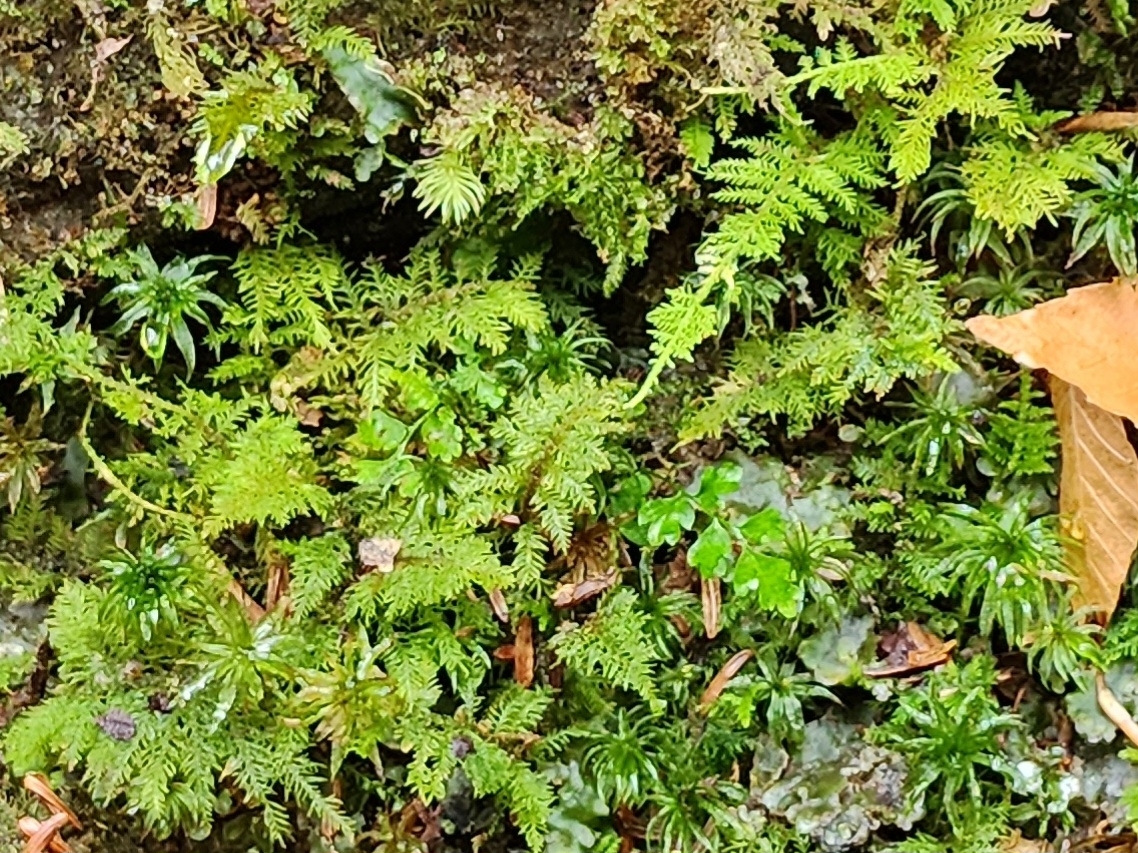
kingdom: Plantae
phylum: Bryophyta
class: Bryopsida
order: Hypnales
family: Thuidiaceae
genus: Thuidium
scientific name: Thuidium delicatulum
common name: Delicate fern moss
